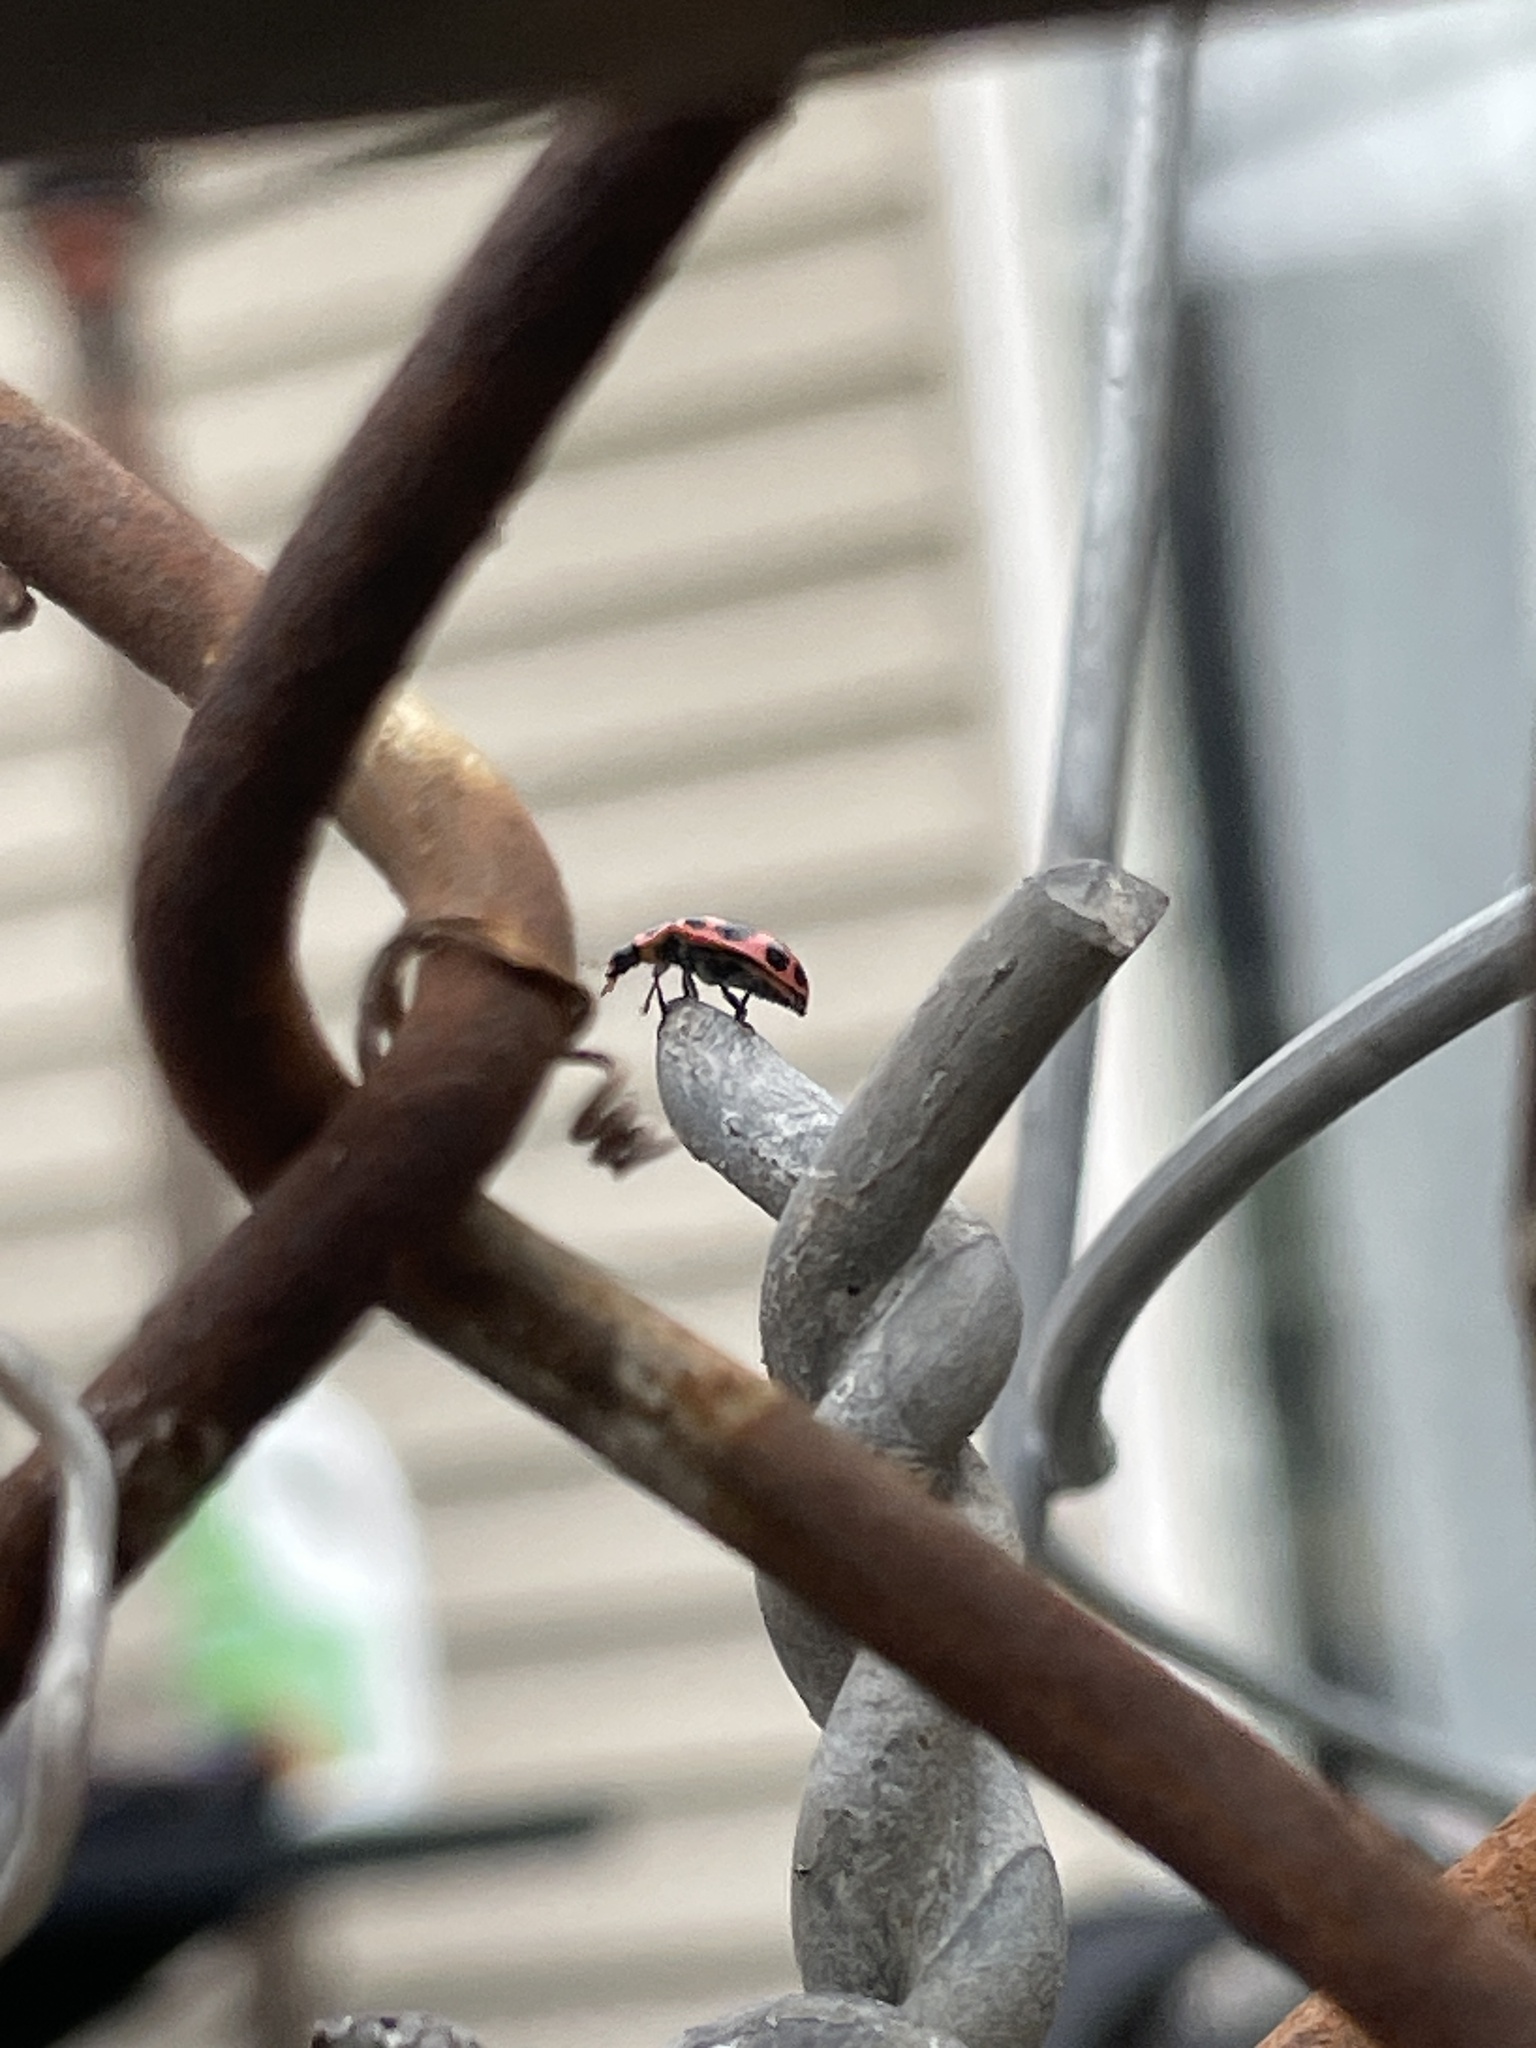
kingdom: Animalia
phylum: Arthropoda
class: Insecta
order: Coleoptera
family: Coccinellidae
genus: Coleomegilla
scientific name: Coleomegilla maculata
